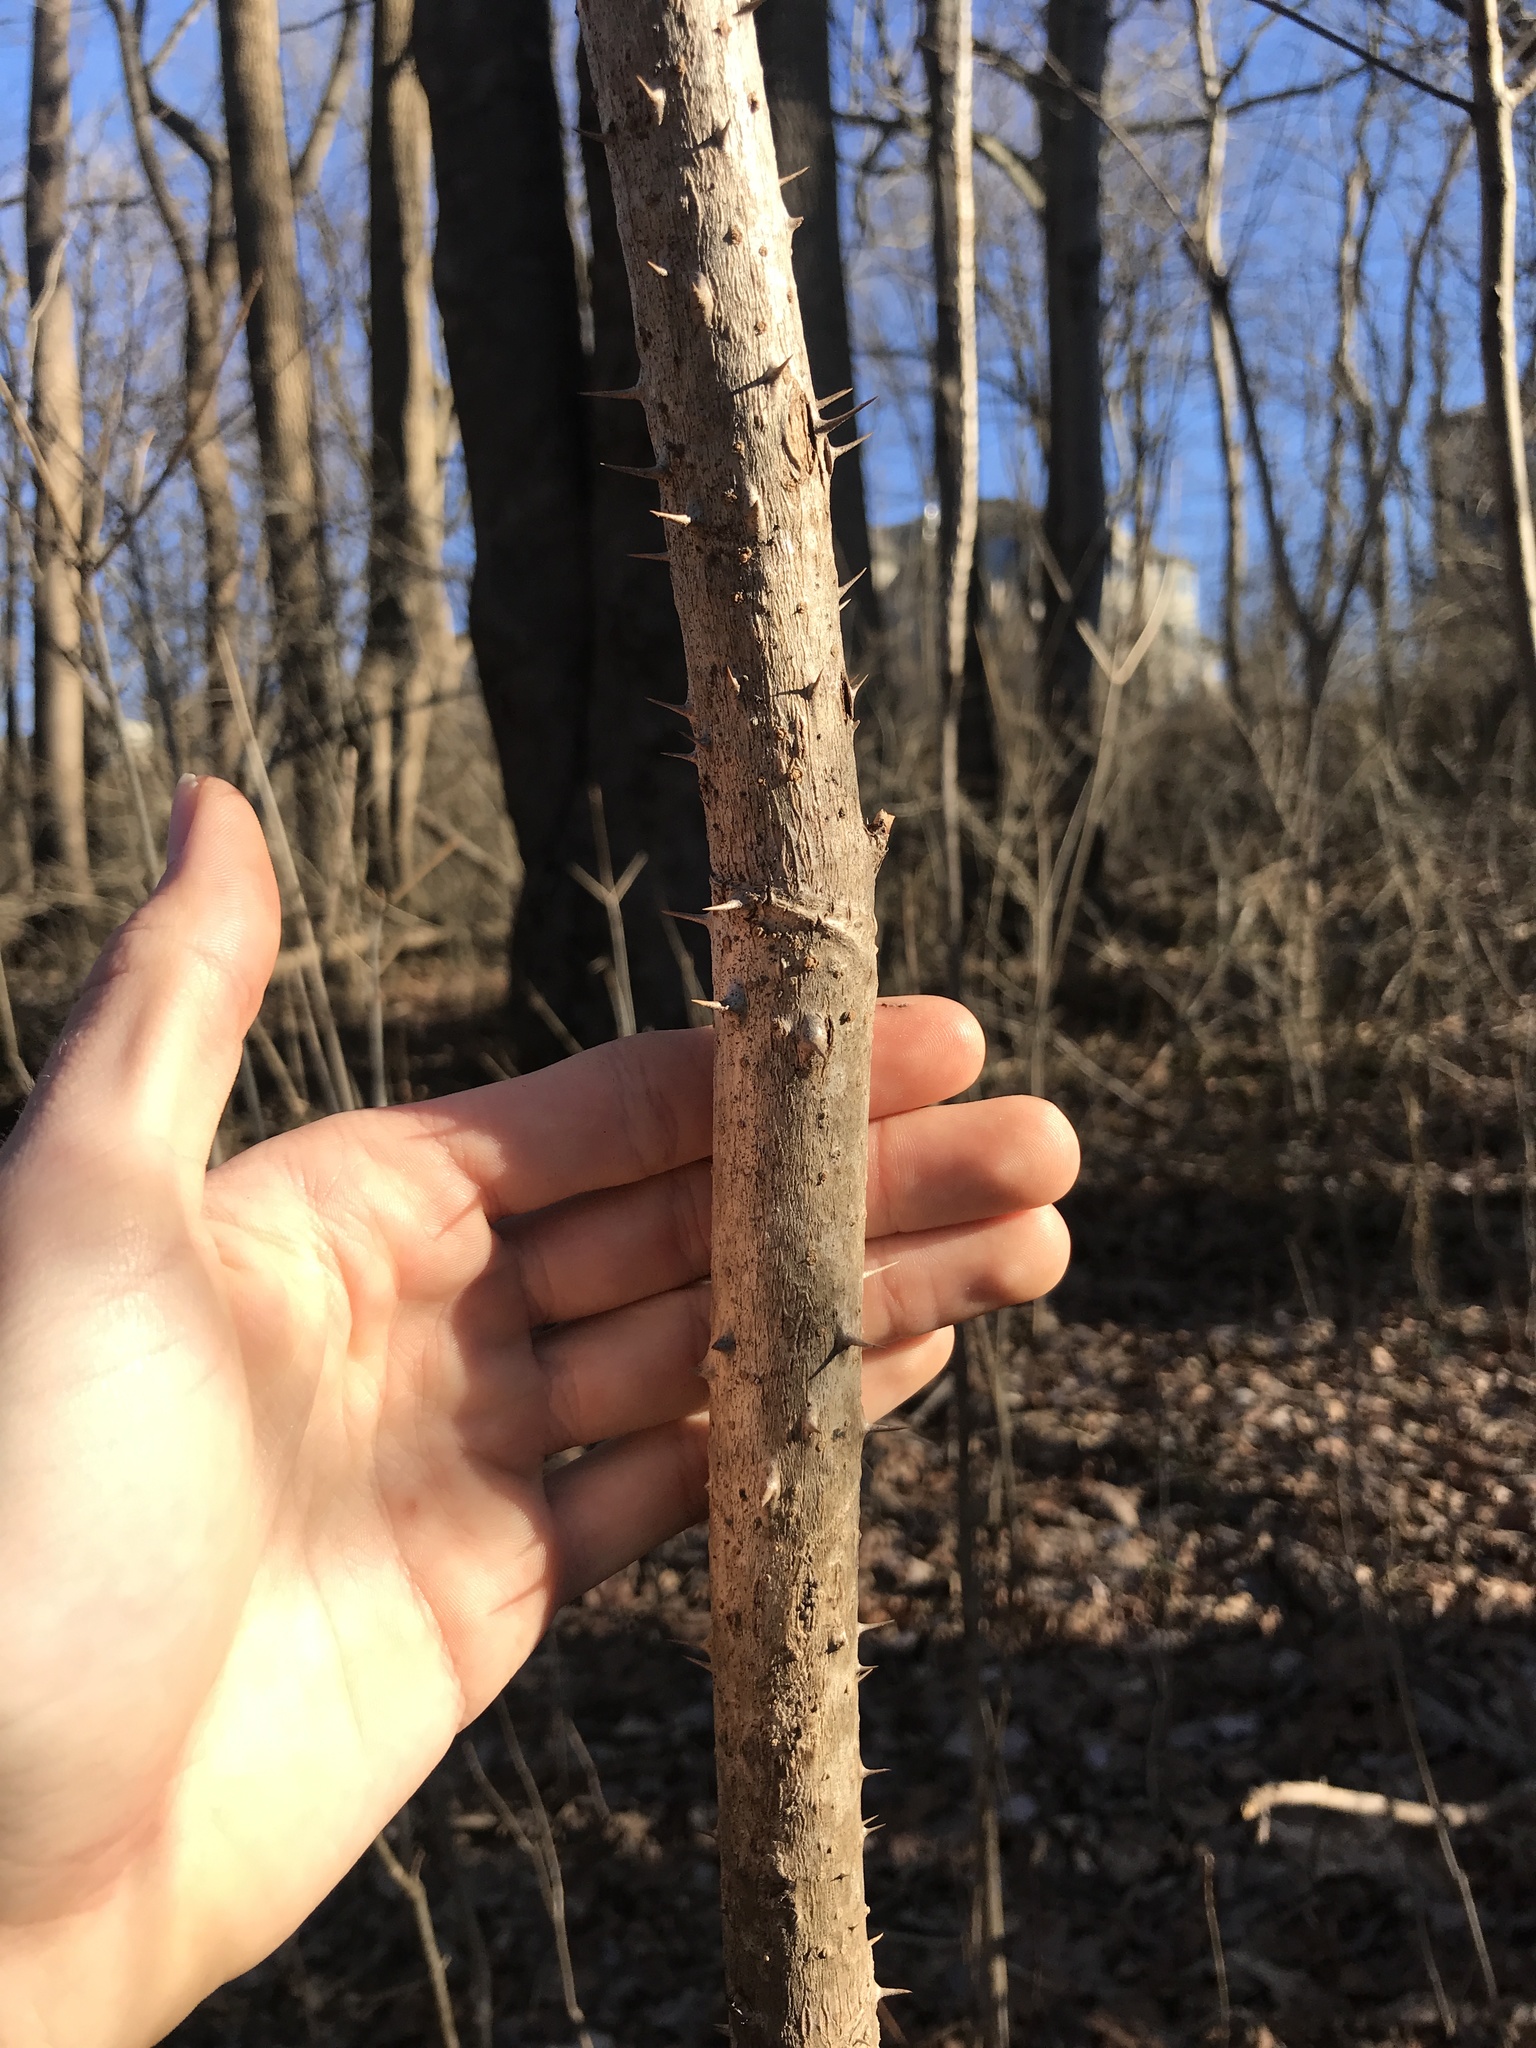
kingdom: Plantae
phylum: Tracheophyta
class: Magnoliopsida
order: Apiales
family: Araliaceae
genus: Aralia
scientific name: Aralia elata
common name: Japanese angelica-tree
